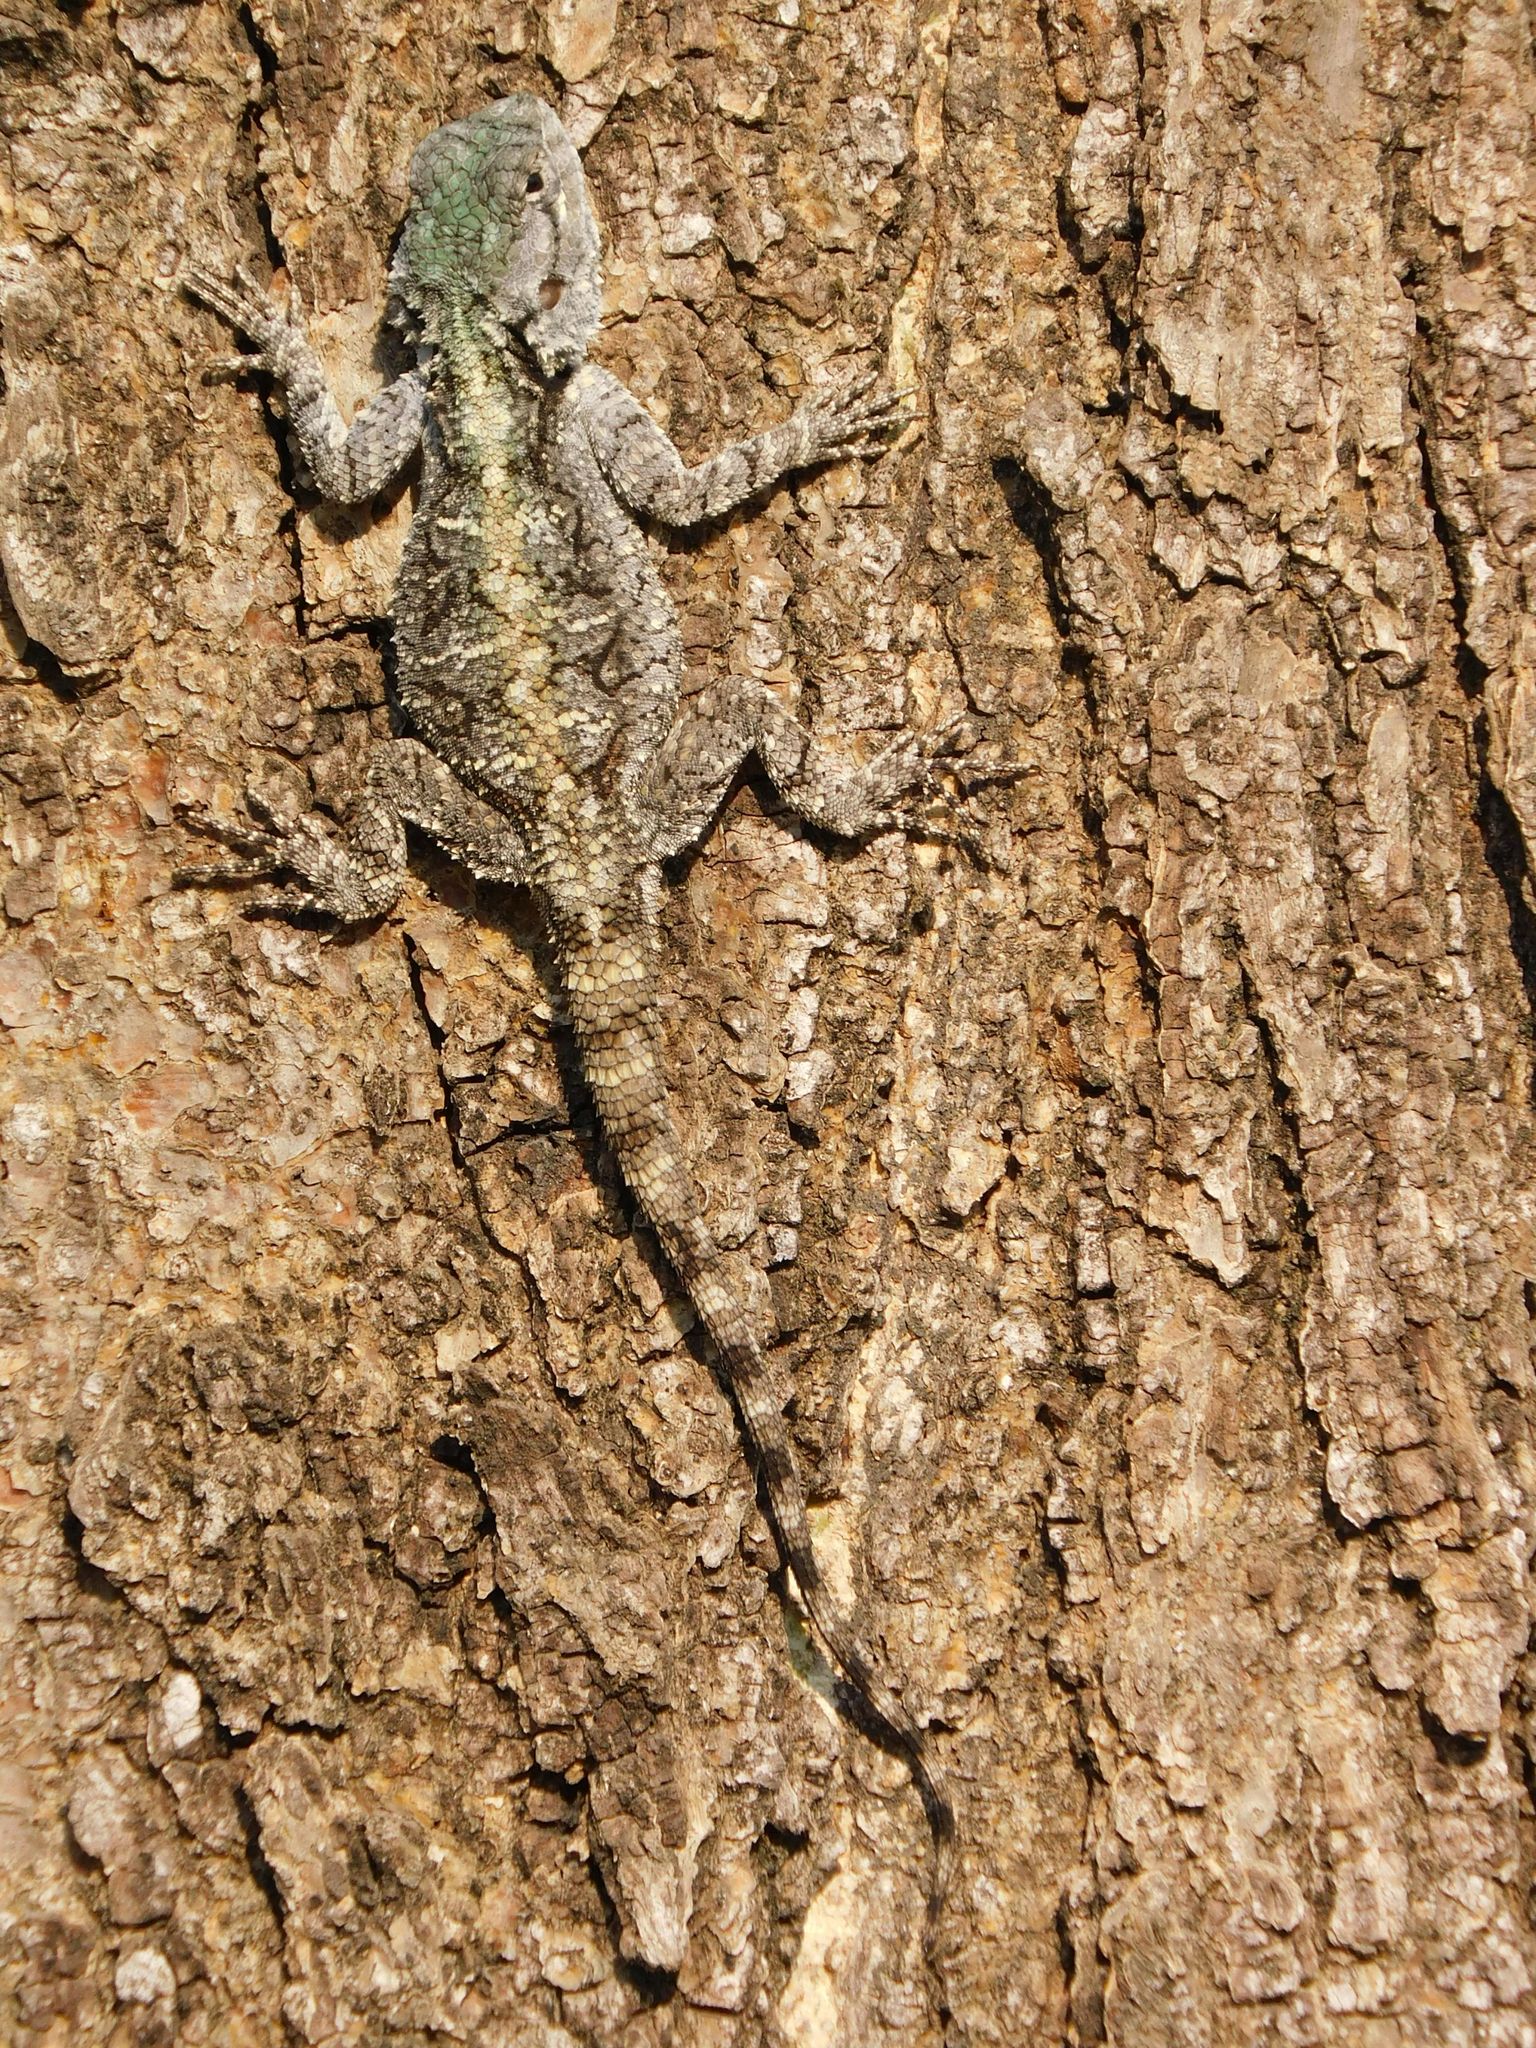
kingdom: Animalia
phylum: Chordata
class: Squamata
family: Agamidae
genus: Acanthocercus
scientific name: Acanthocercus atricollis
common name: Southern tree agama
